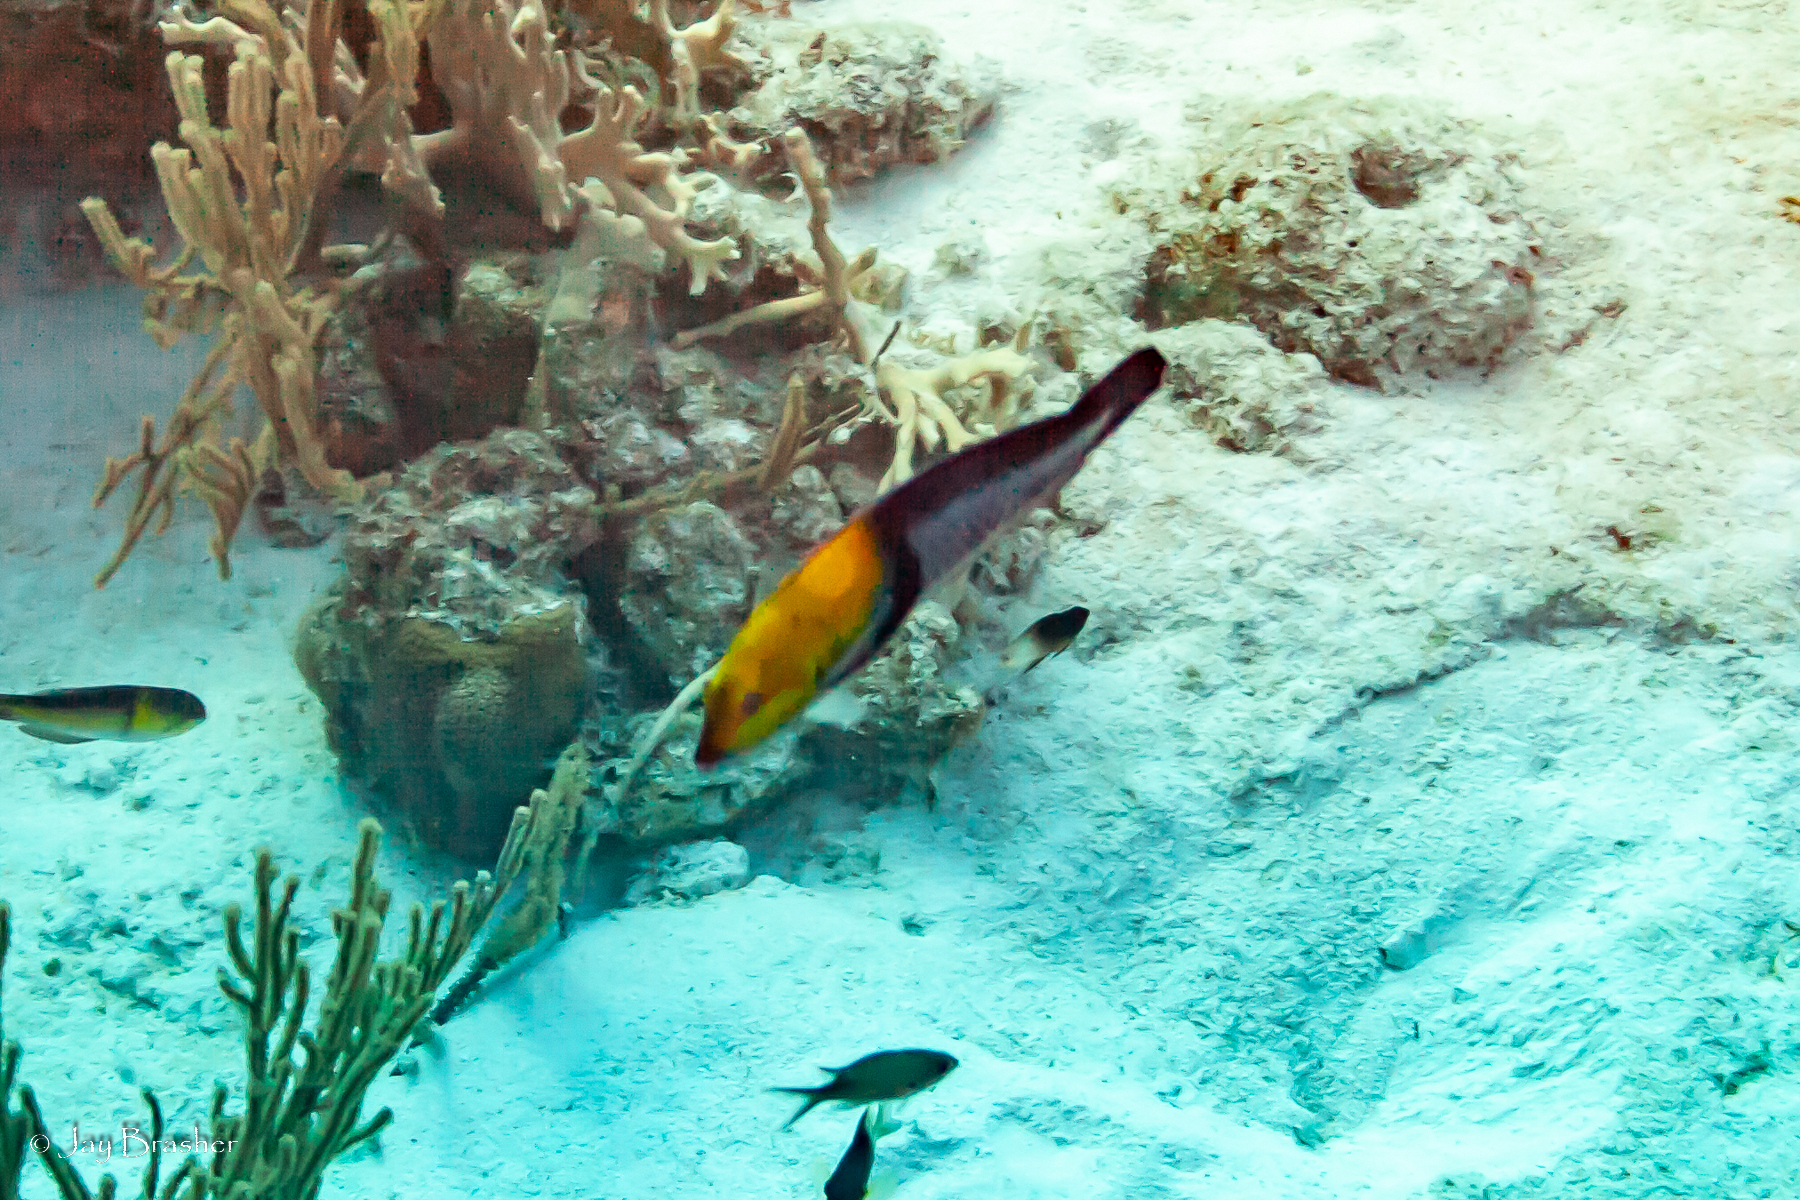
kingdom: Animalia
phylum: Chordata
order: Perciformes
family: Labridae
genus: Halichoeres
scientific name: Halichoeres garnoti
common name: Yellowhead wrasse
